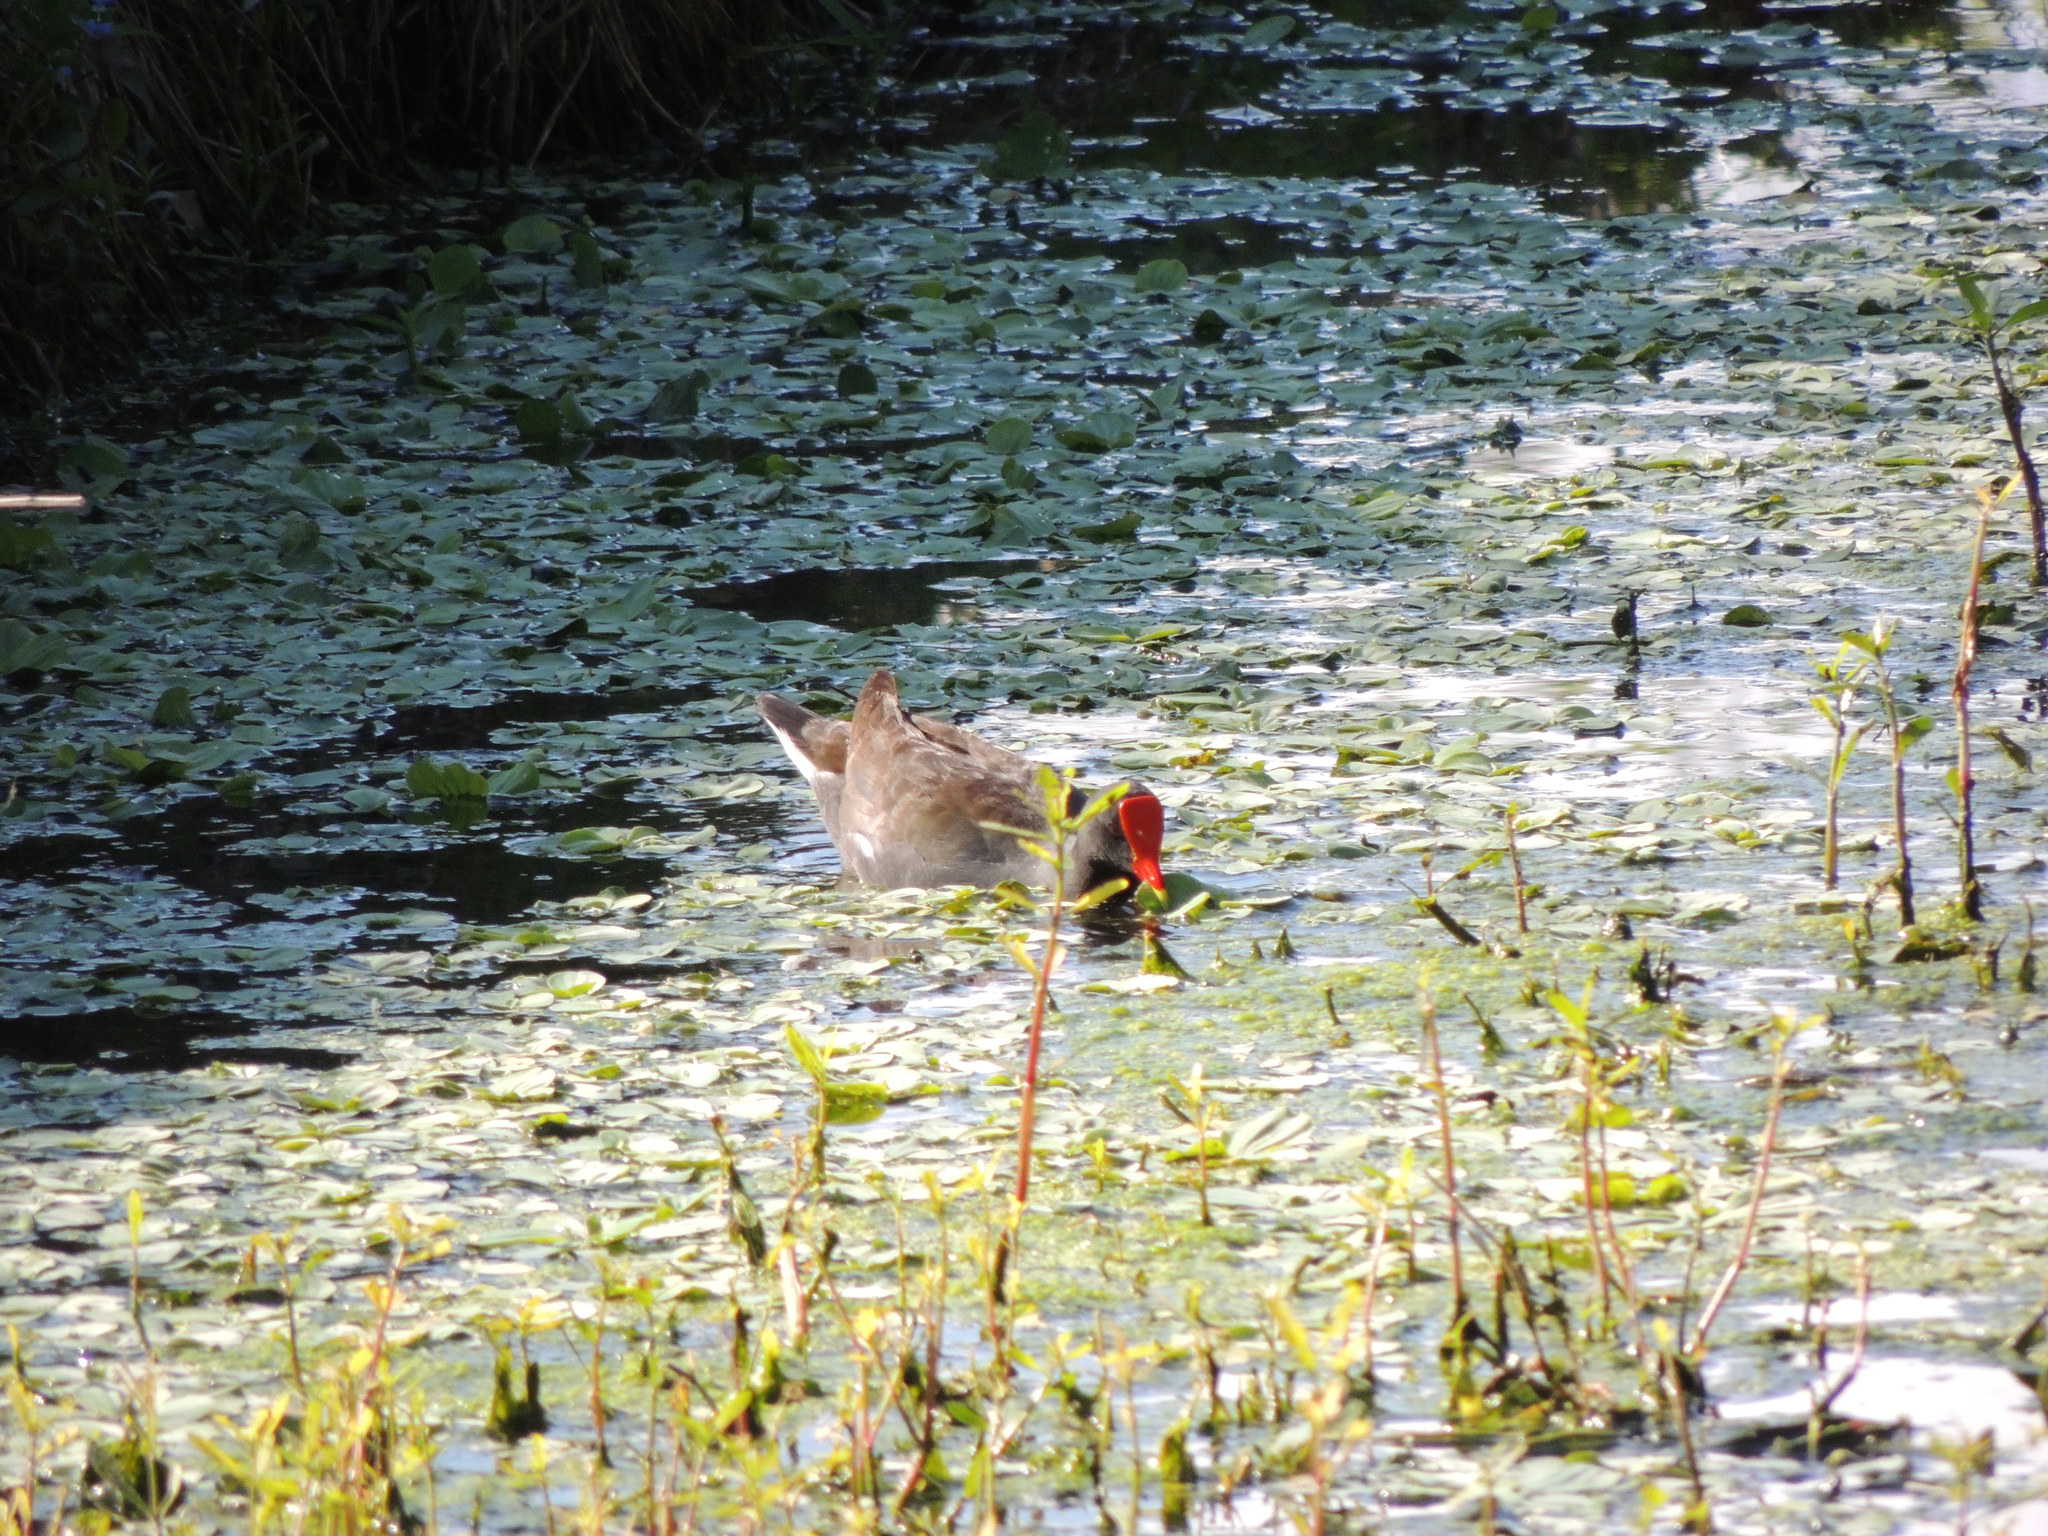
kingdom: Animalia
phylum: Chordata
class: Aves
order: Gruiformes
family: Rallidae
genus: Gallinula
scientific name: Gallinula chloropus
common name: Common moorhen
